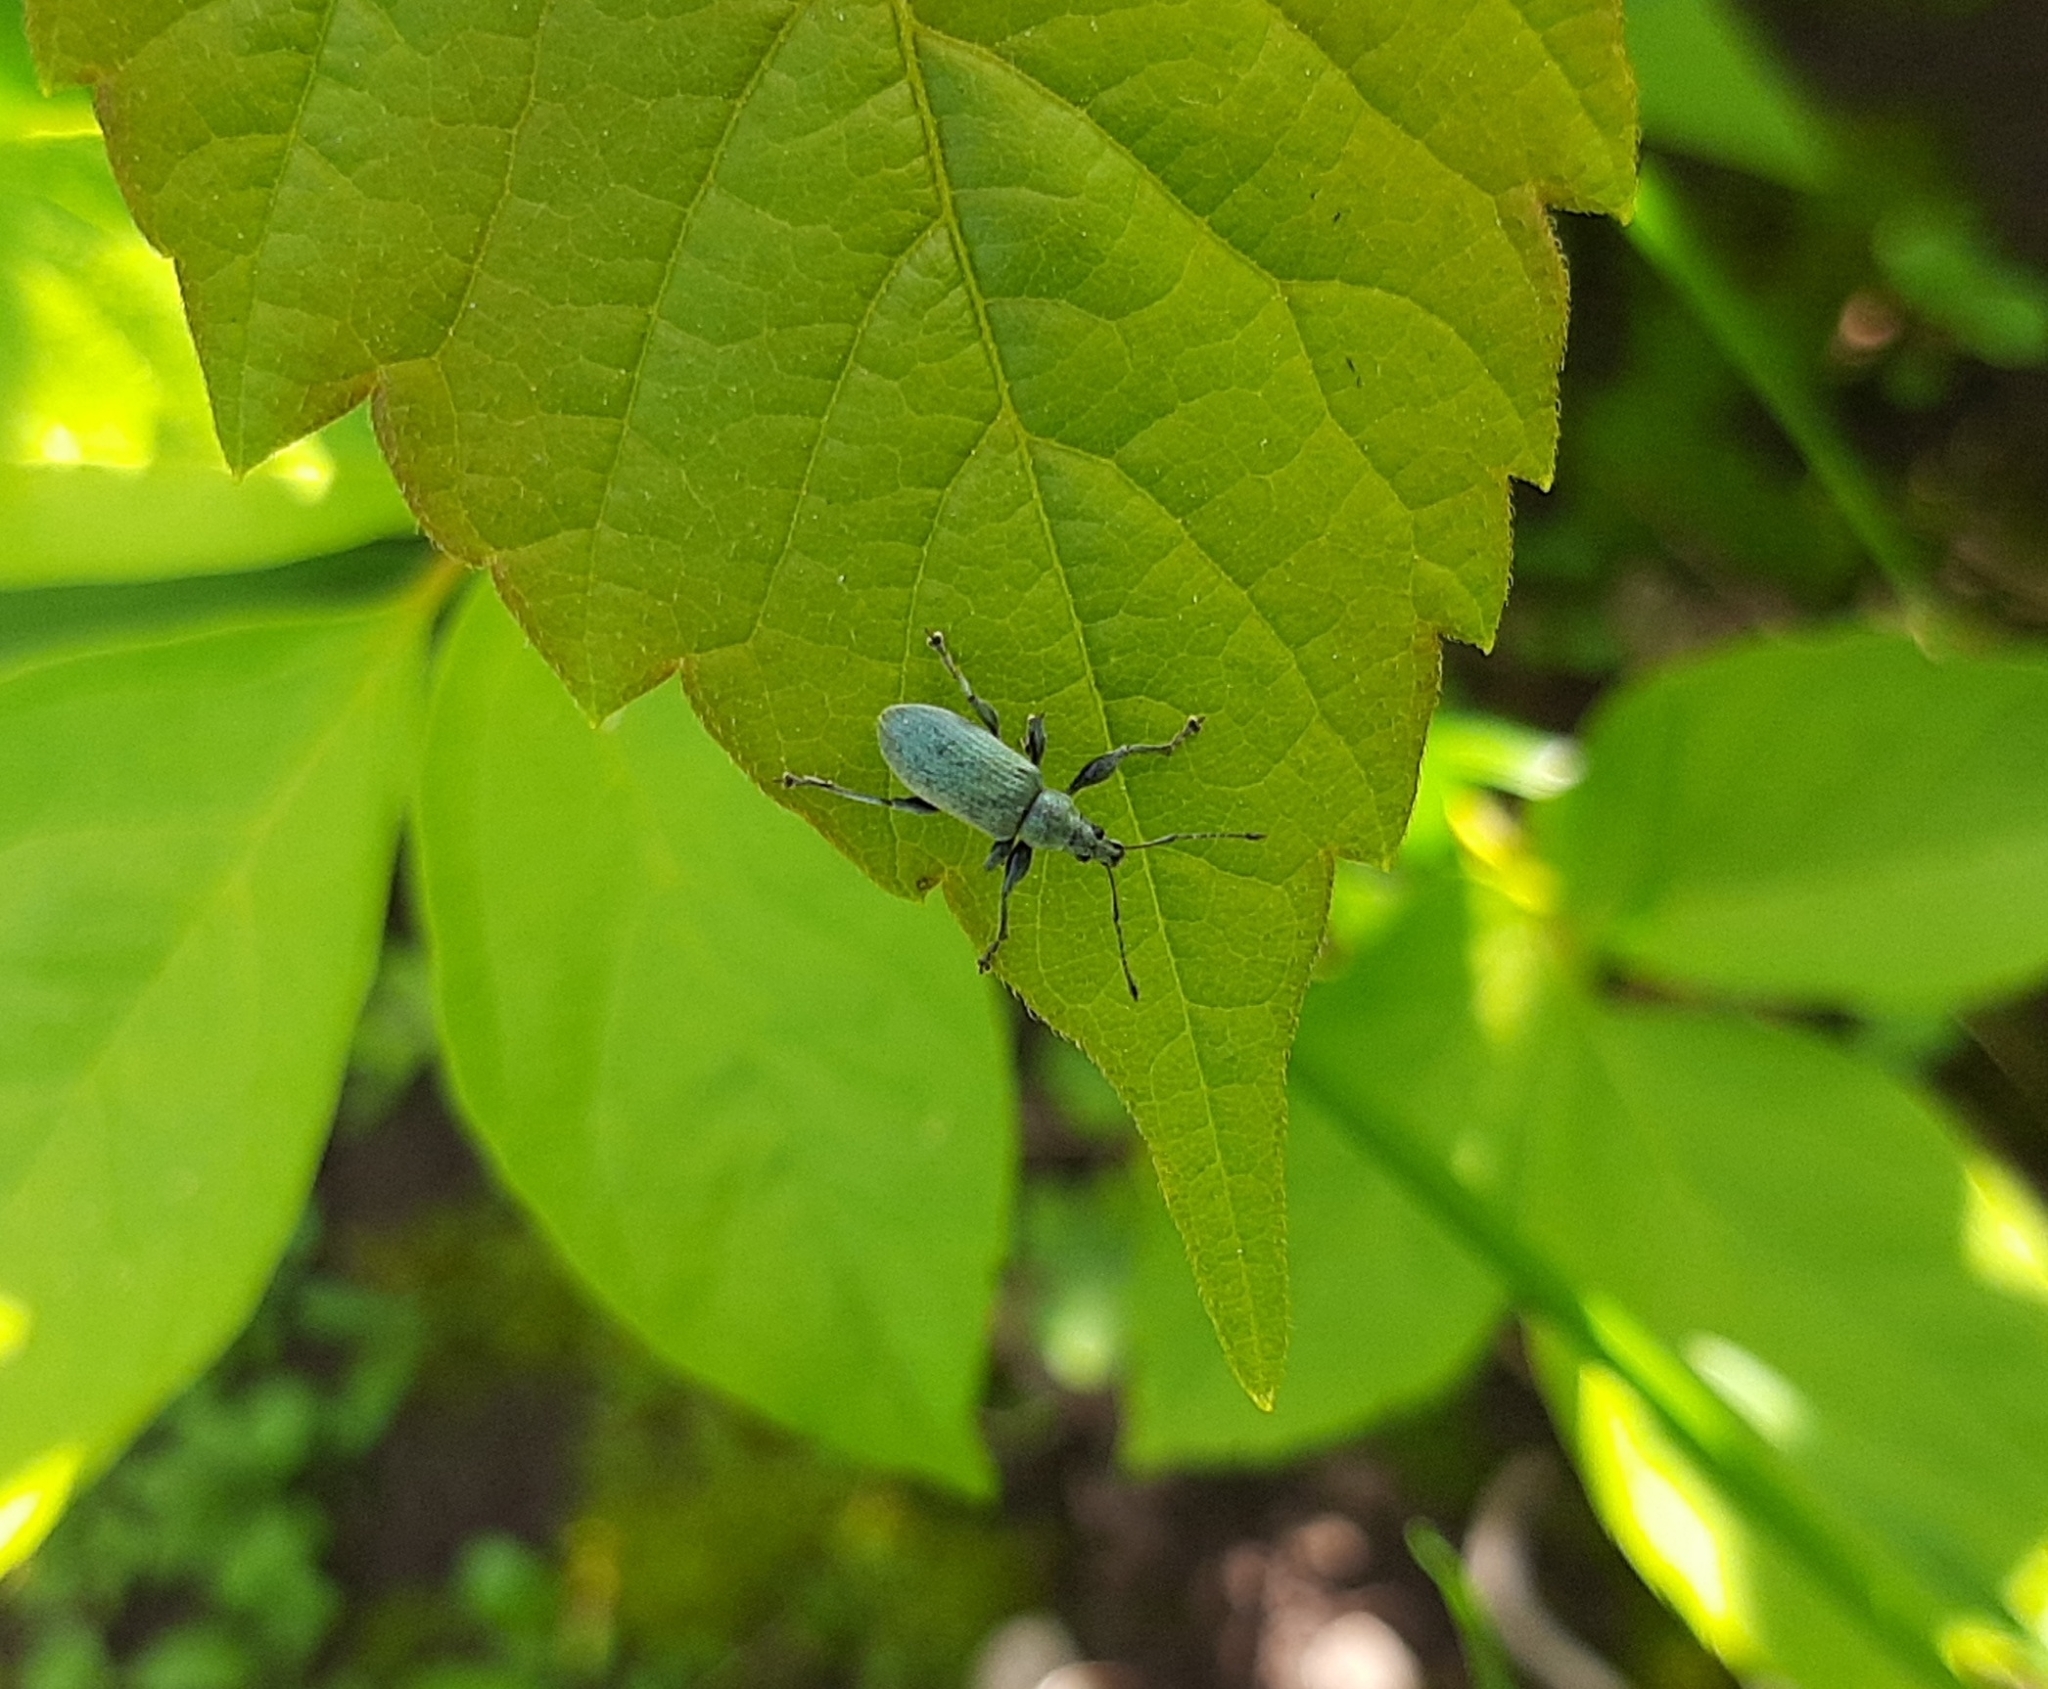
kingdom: Animalia
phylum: Arthropoda
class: Insecta
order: Coleoptera
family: Curculionidae
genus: Phyllobius
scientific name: Phyllobius pomaceus
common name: Green nettle weevil
